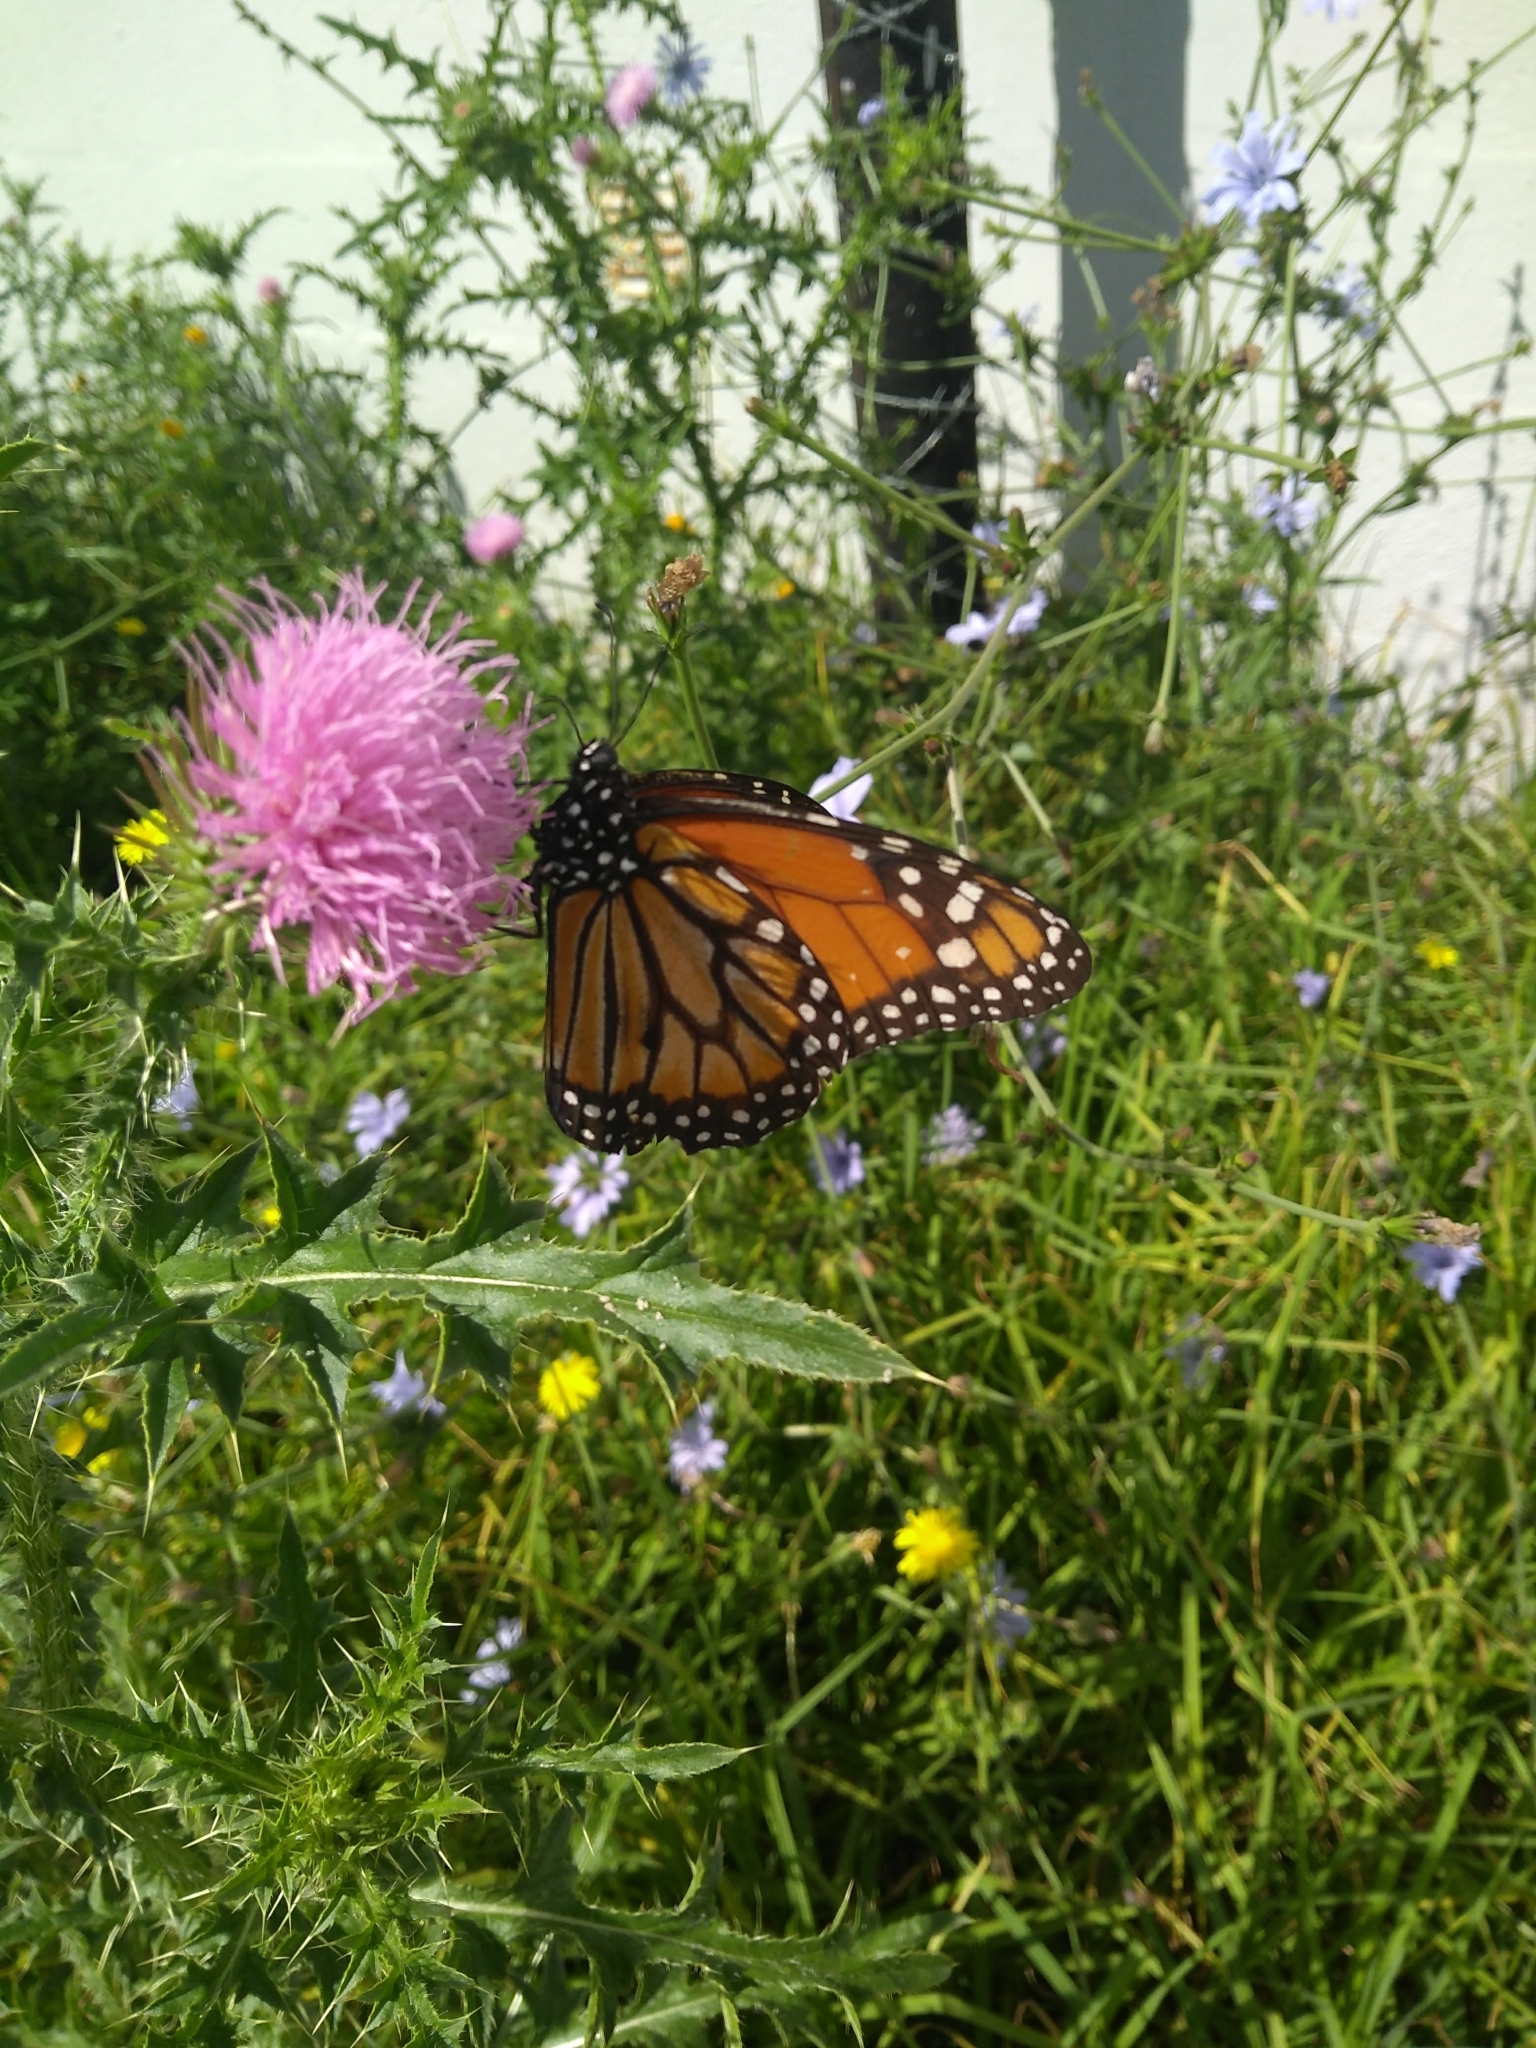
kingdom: Animalia
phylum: Arthropoda
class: Insecta
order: Lepidoptera
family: Nymphalidae
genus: Danaus
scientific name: Danaus erippus
